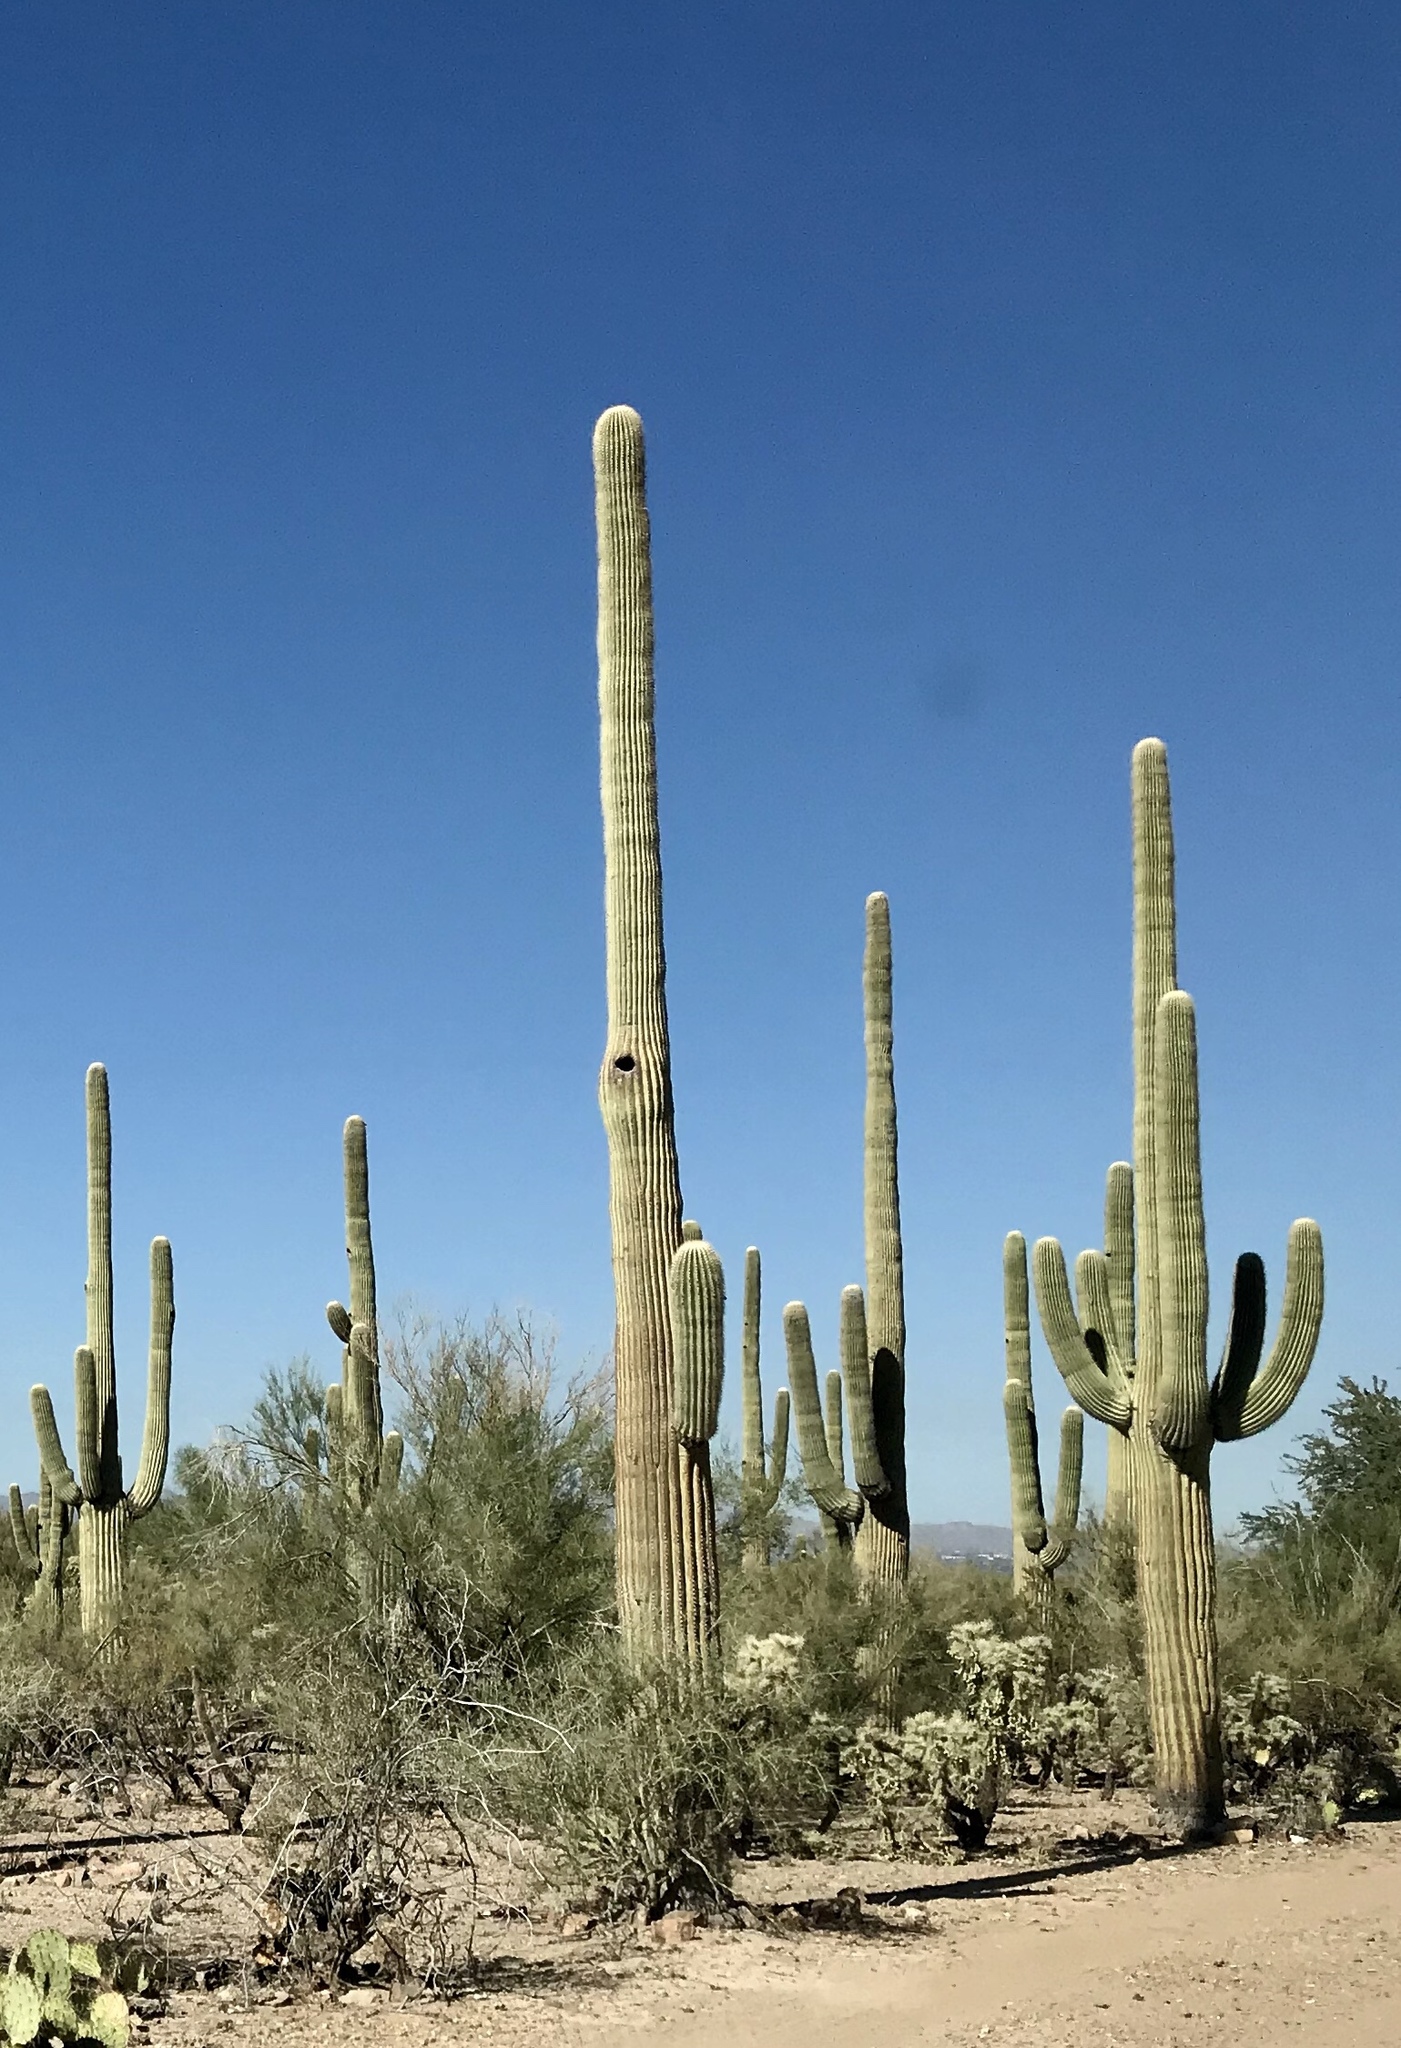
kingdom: Plantae
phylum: Tracheophyta
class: Magnoliopsida
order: Caryophyllales
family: Cactaceae
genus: Carnegiea
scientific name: Carnegiea gigantea
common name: Saguaro
